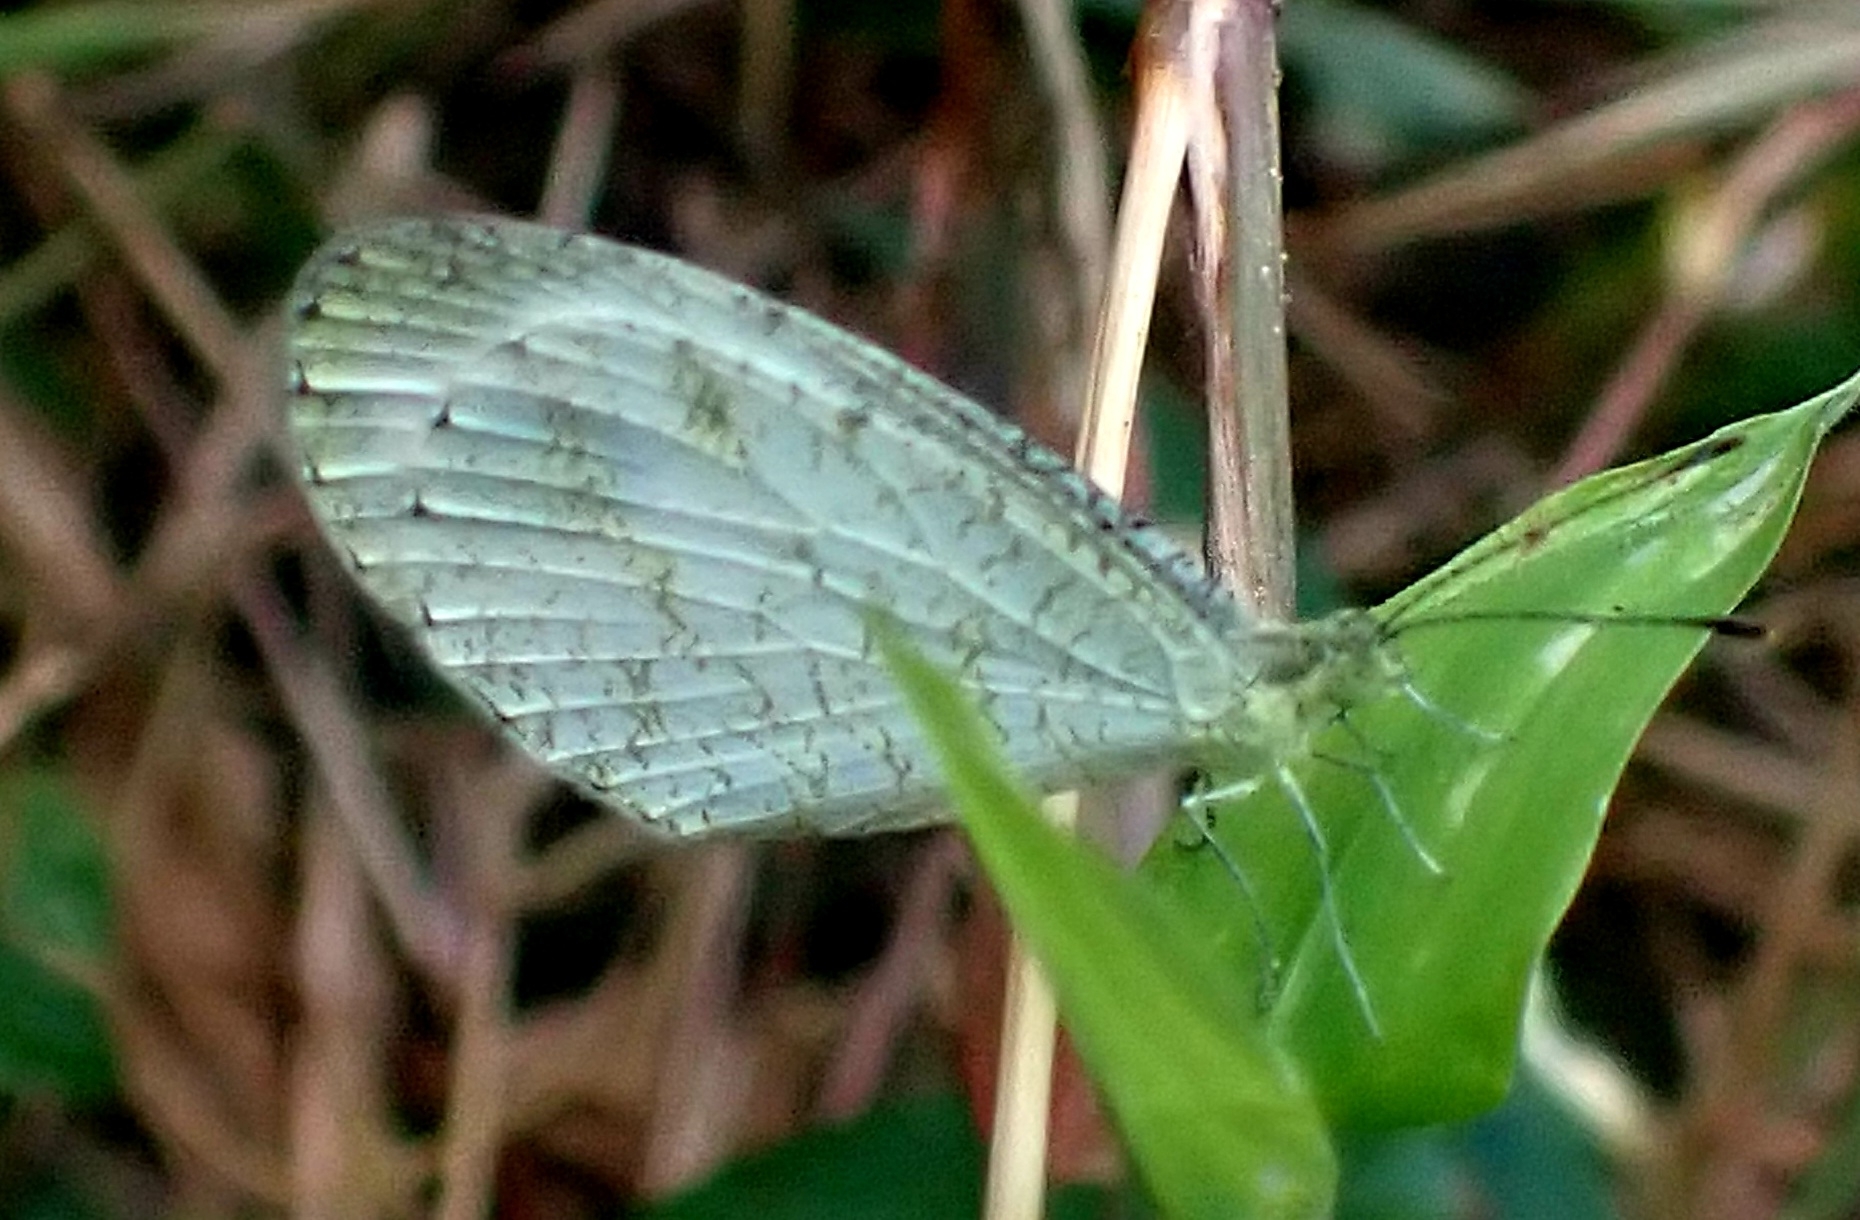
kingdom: Animalia
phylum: Arthropoda
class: Insecta
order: Lepidoptera
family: Pieridae
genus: Leptosia
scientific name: Leptosia nina
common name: Psyche
